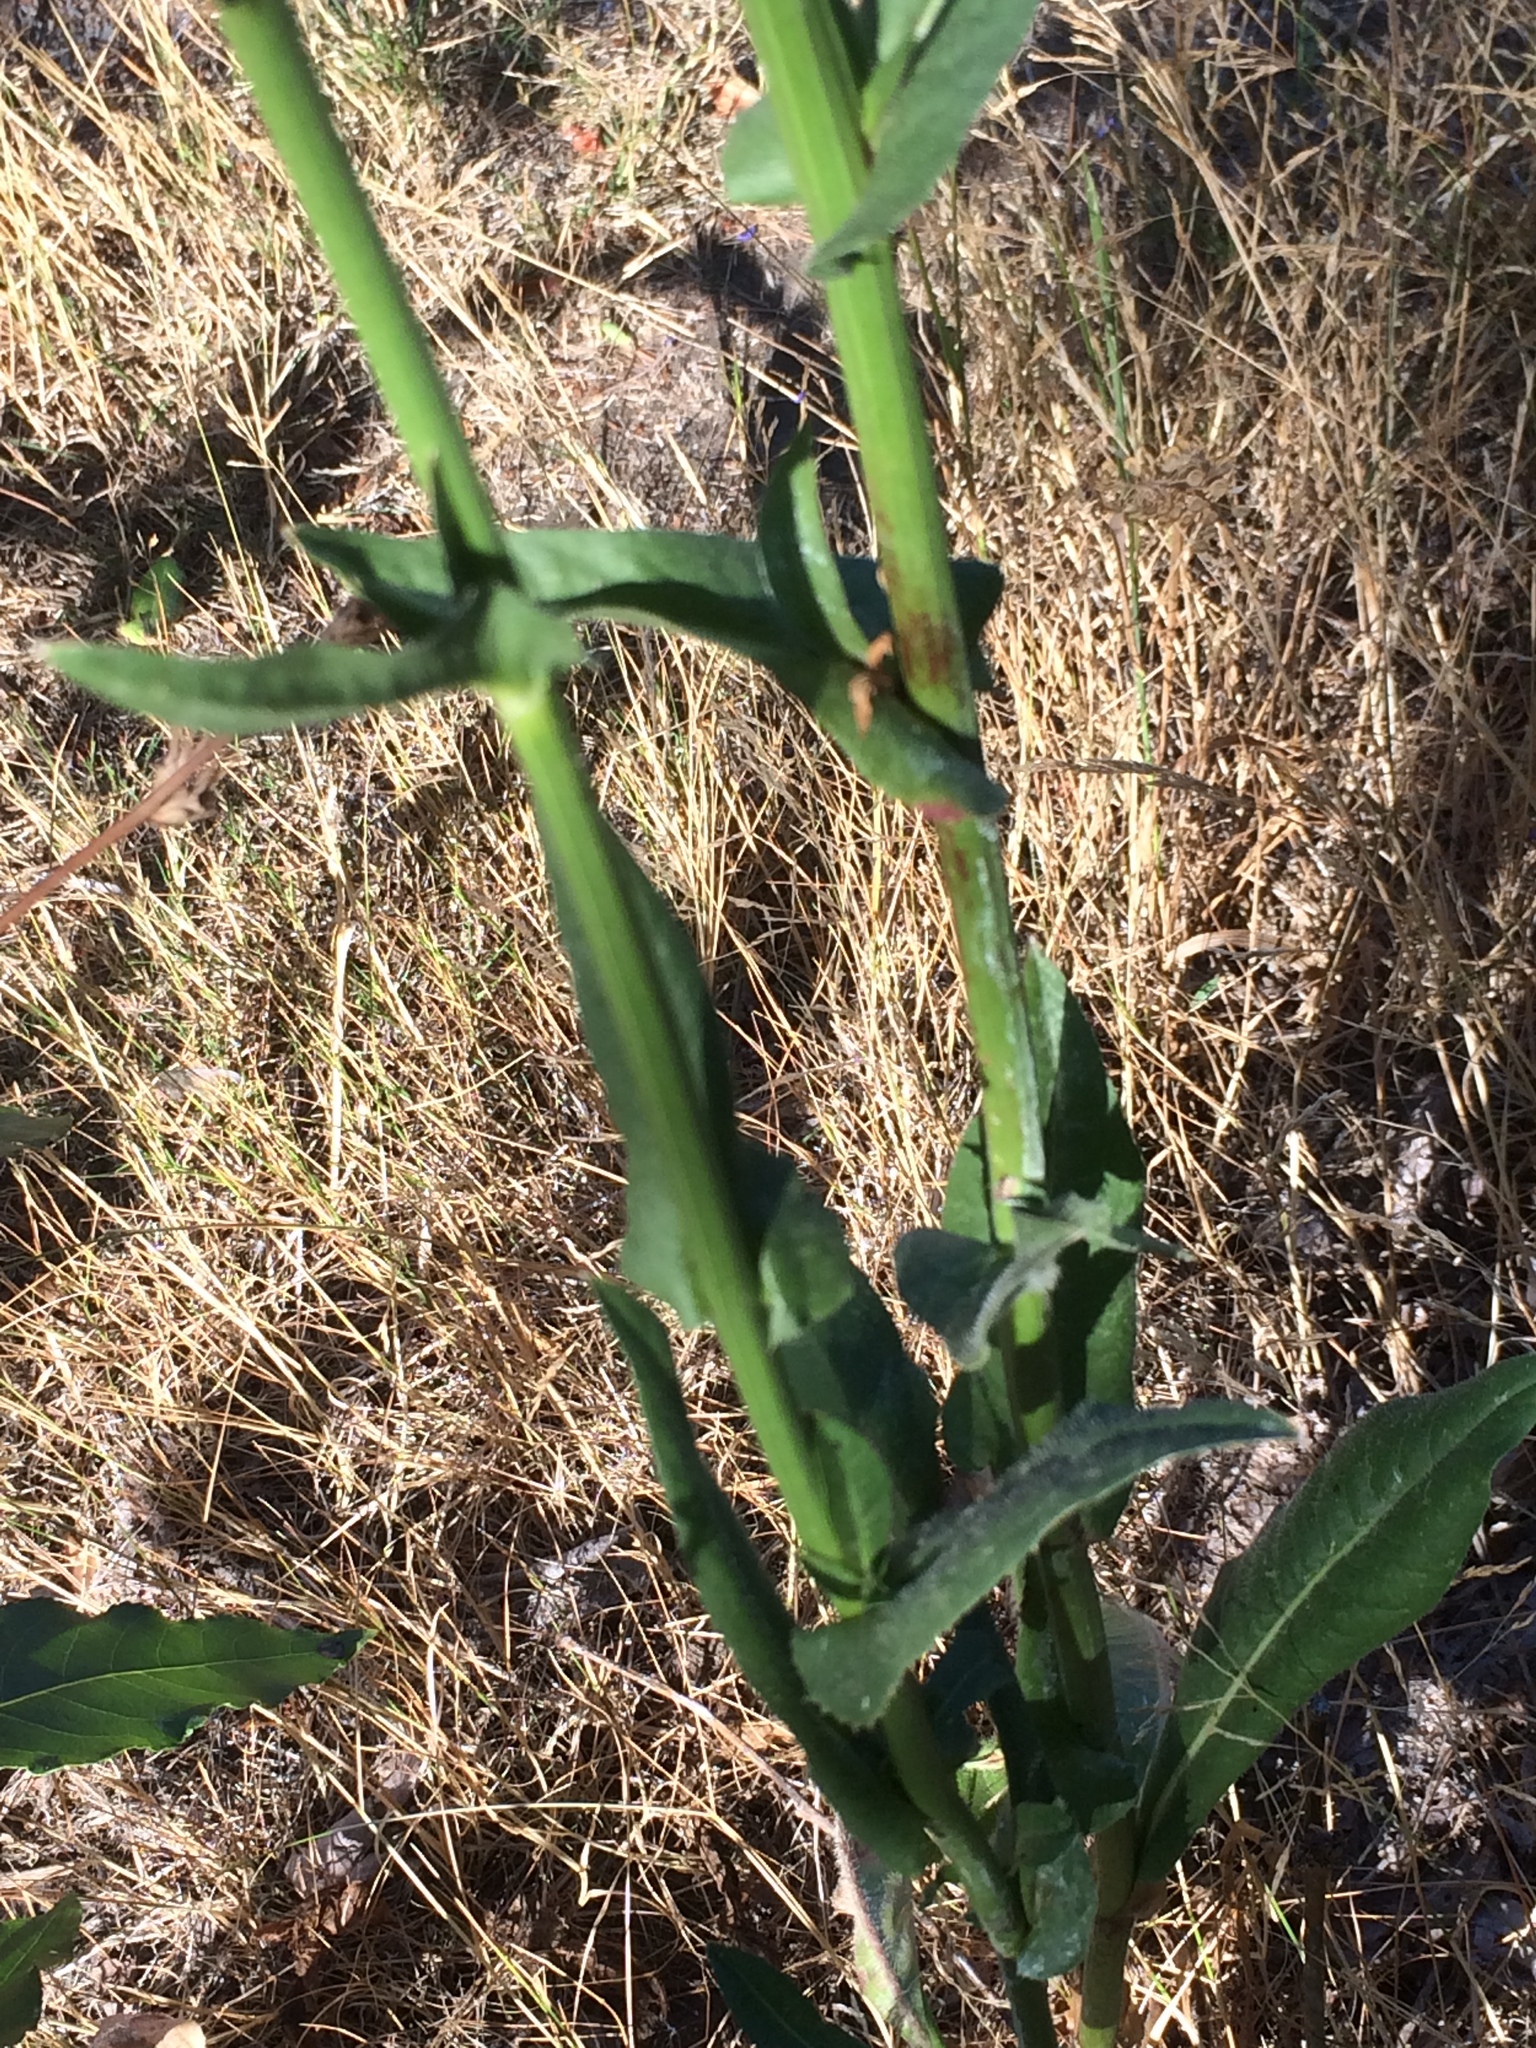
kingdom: Plantae
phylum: Tracheophyta
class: Magnoliopsida
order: Asterales
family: Asteraceae
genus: Cichorium
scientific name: Cichorium intybus
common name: Chicory
